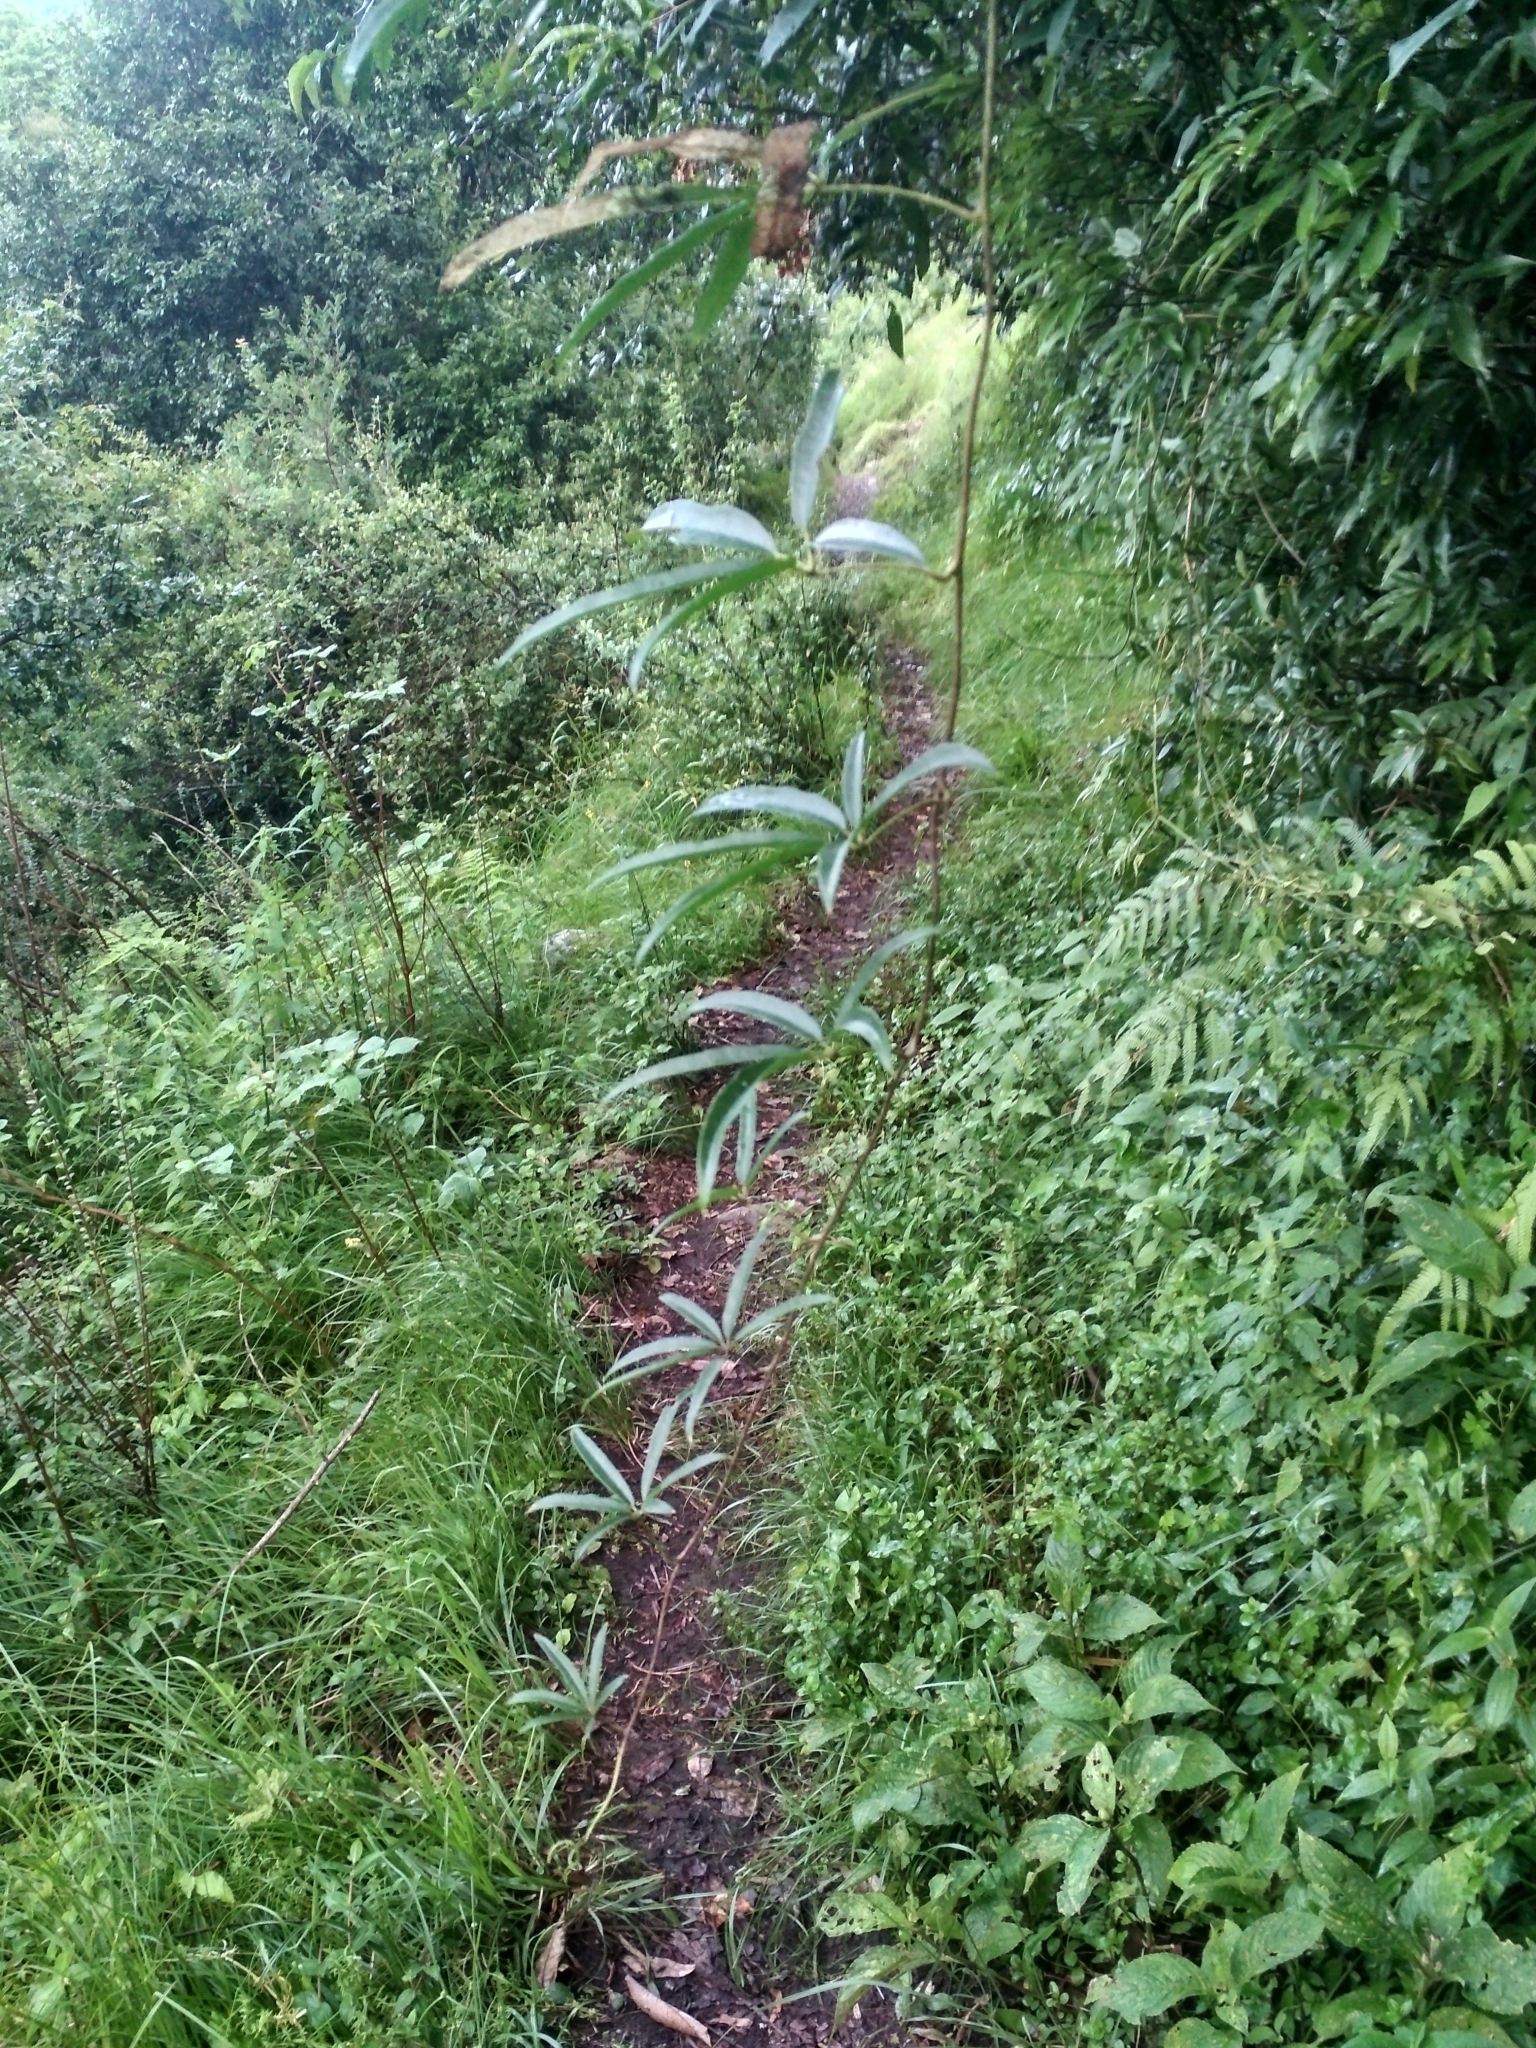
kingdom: Plantae
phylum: Tracheophyta
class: Magnoliopsida
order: Ranunculales
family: Lardizabalaceae
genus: Stauntonia
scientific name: Stauntonia latifolia
